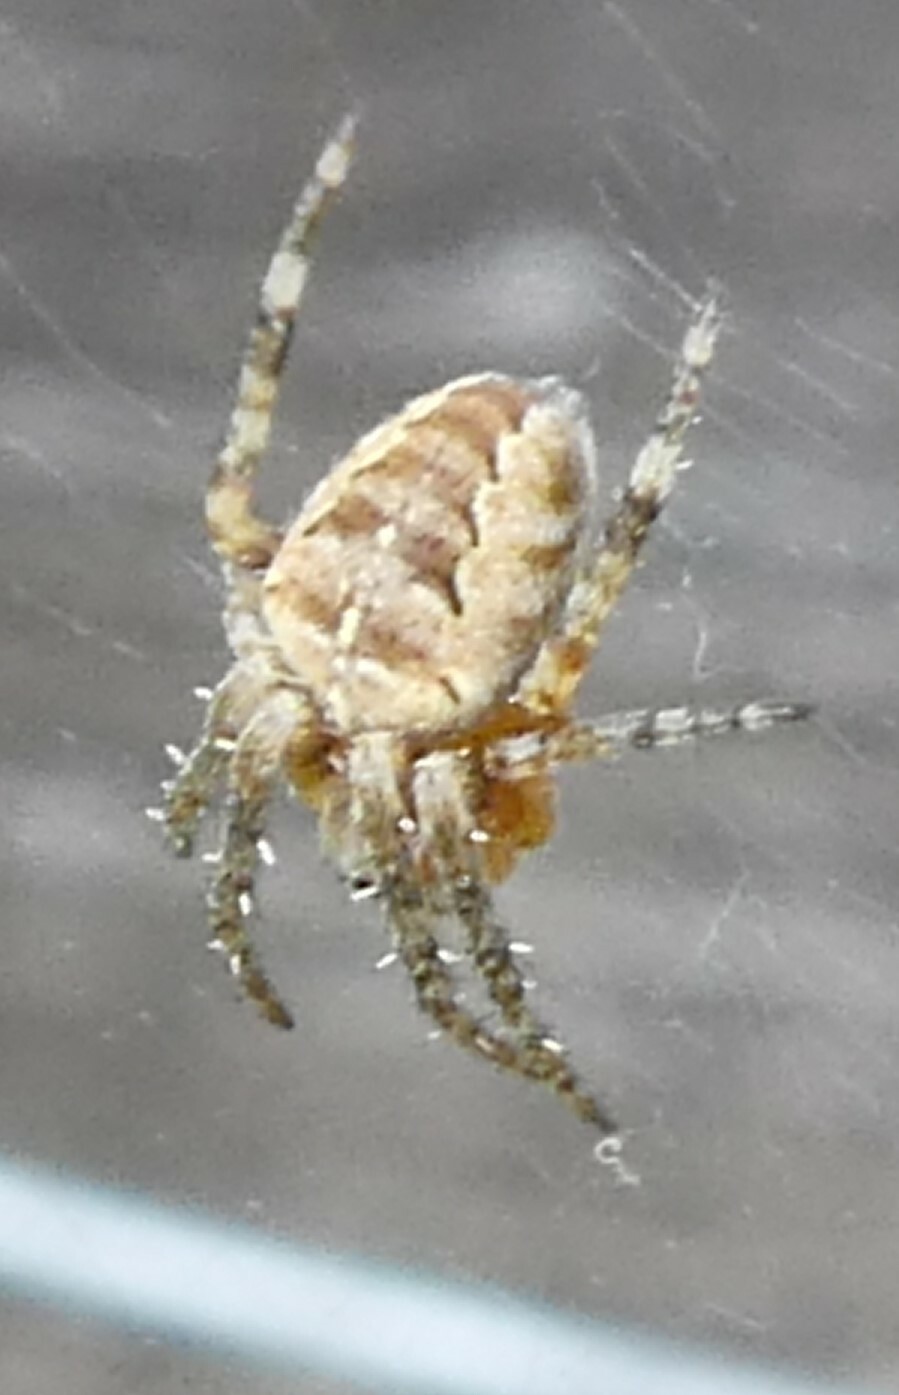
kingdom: Animalia
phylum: Arthropoda
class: Arachnida
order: Araneae
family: Araneidae
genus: Araneus
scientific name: Araneus diadematus
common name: Cross orbweaver
